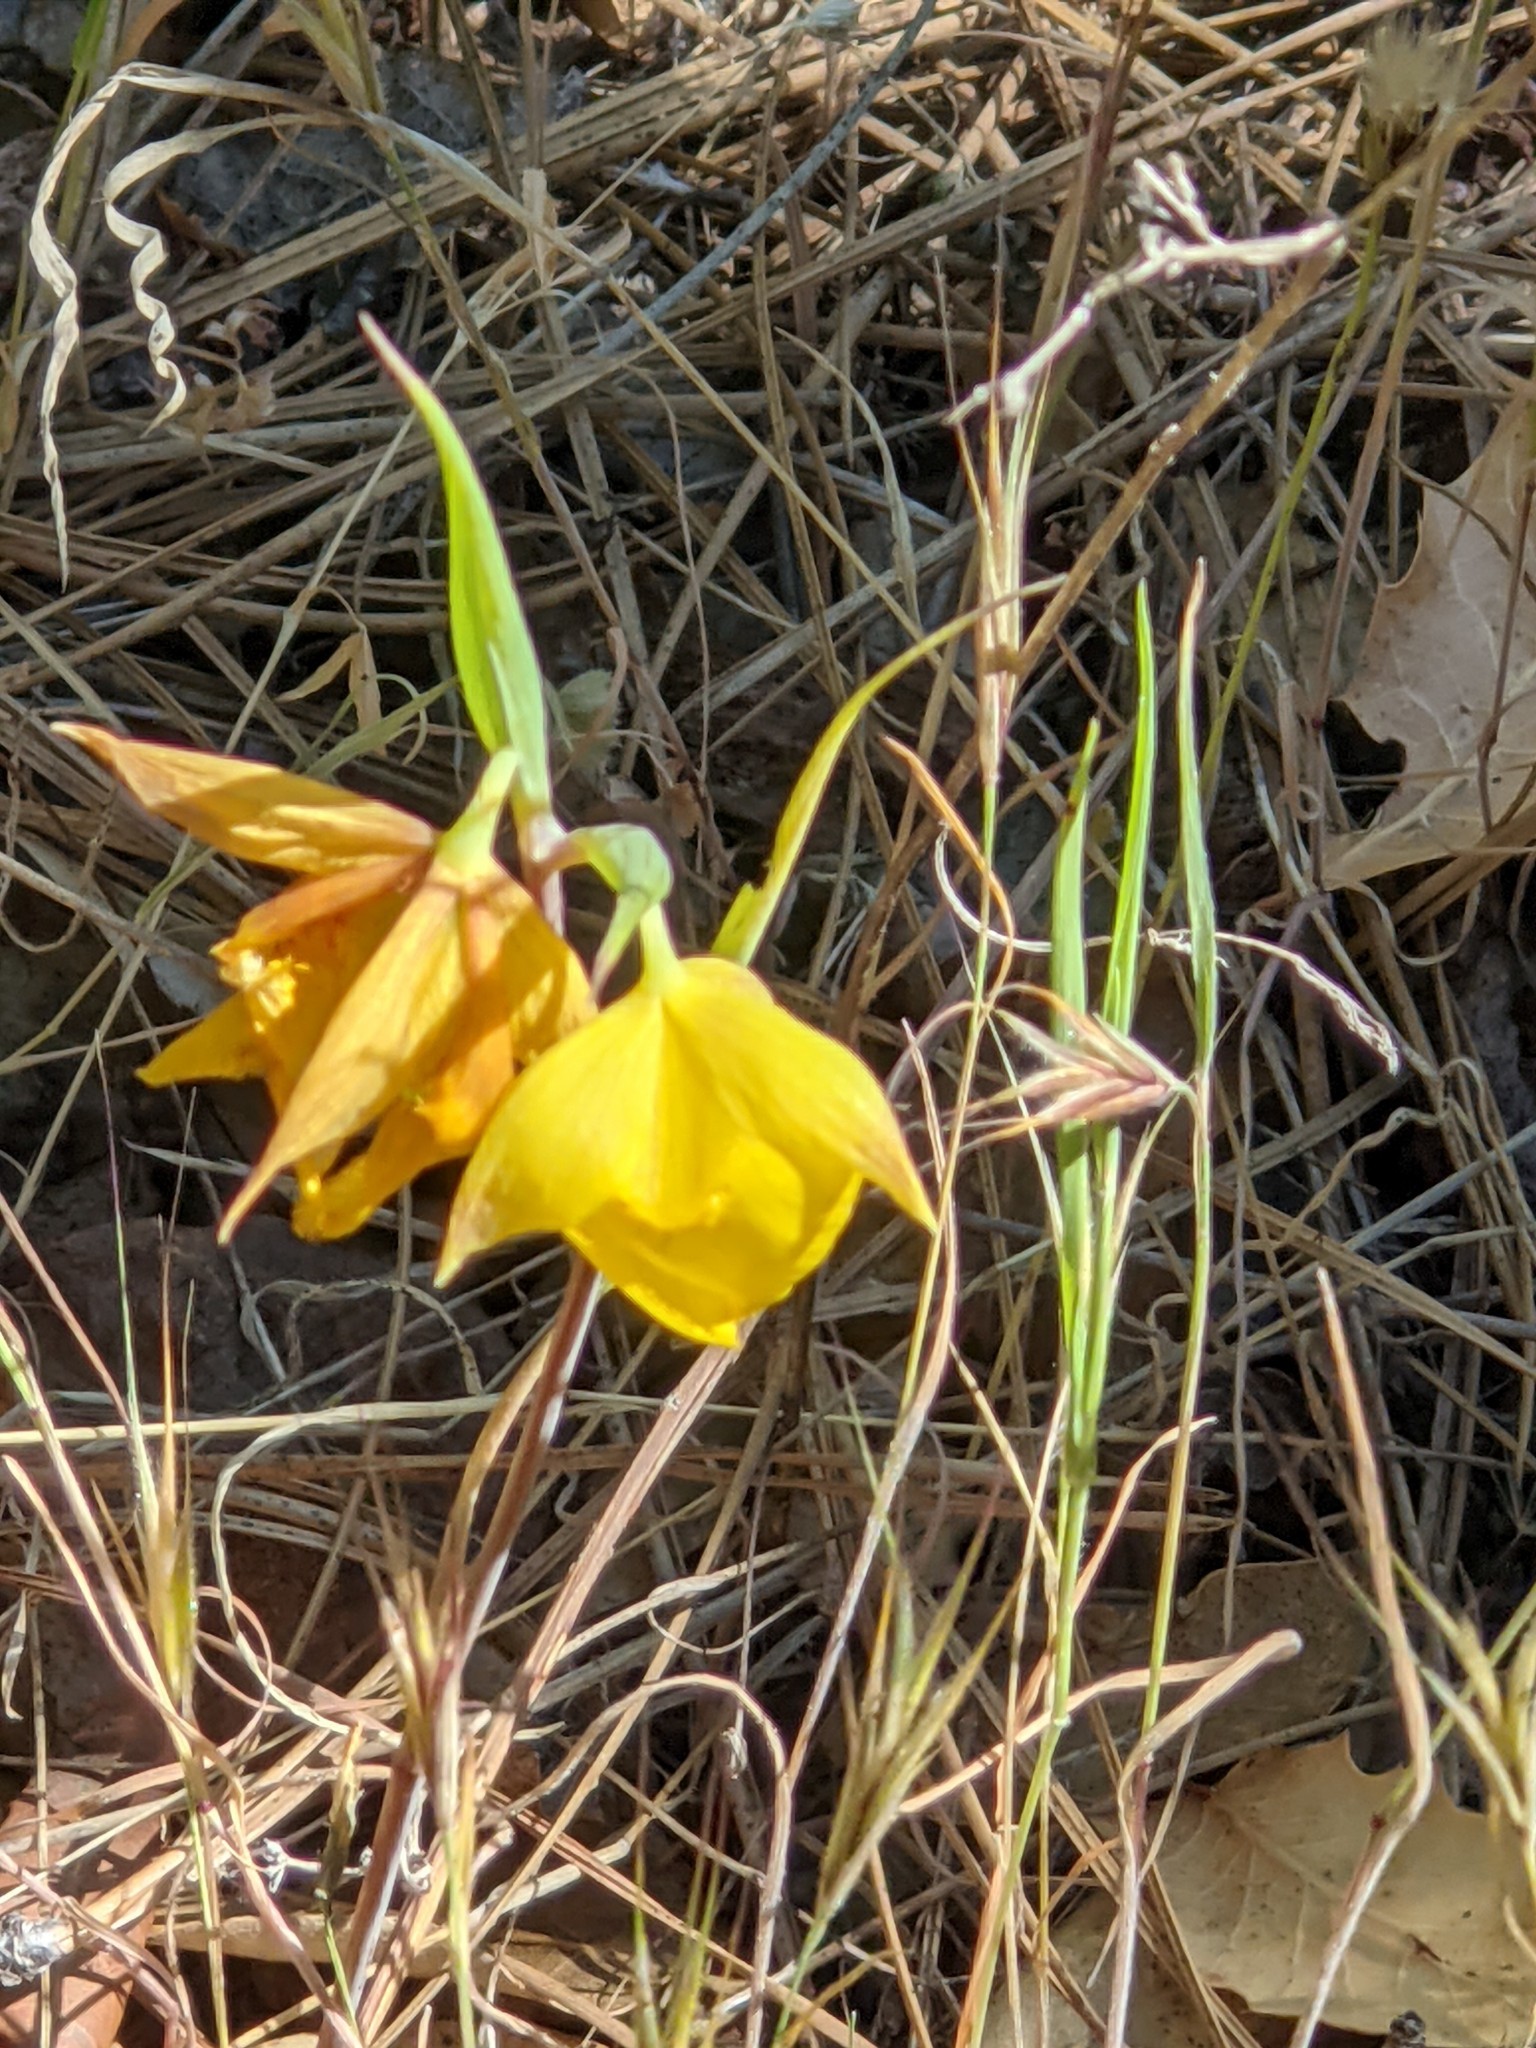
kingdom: Plantae
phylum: Tracheophyta
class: Liliopsida
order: Liliales
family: Liliaceae
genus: Calochortus
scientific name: Calochortus pulchellus
